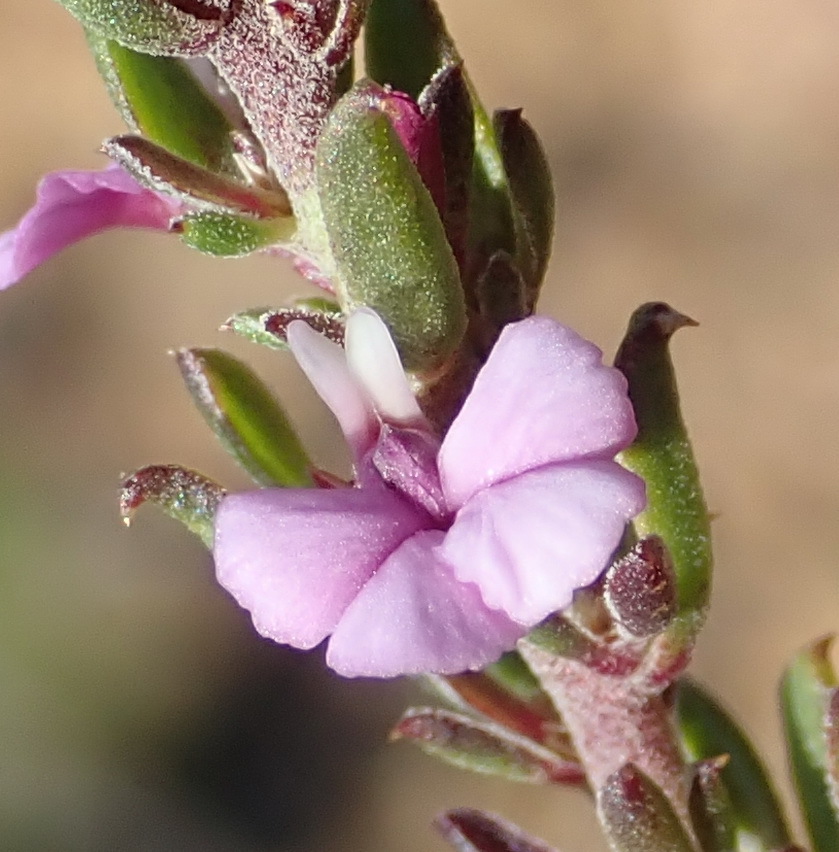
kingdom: Plantae
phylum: Tracheophyta
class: Magnoliopsida
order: Fabales
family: Polygalaceae
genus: Muraltia
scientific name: Muraltia karroica
